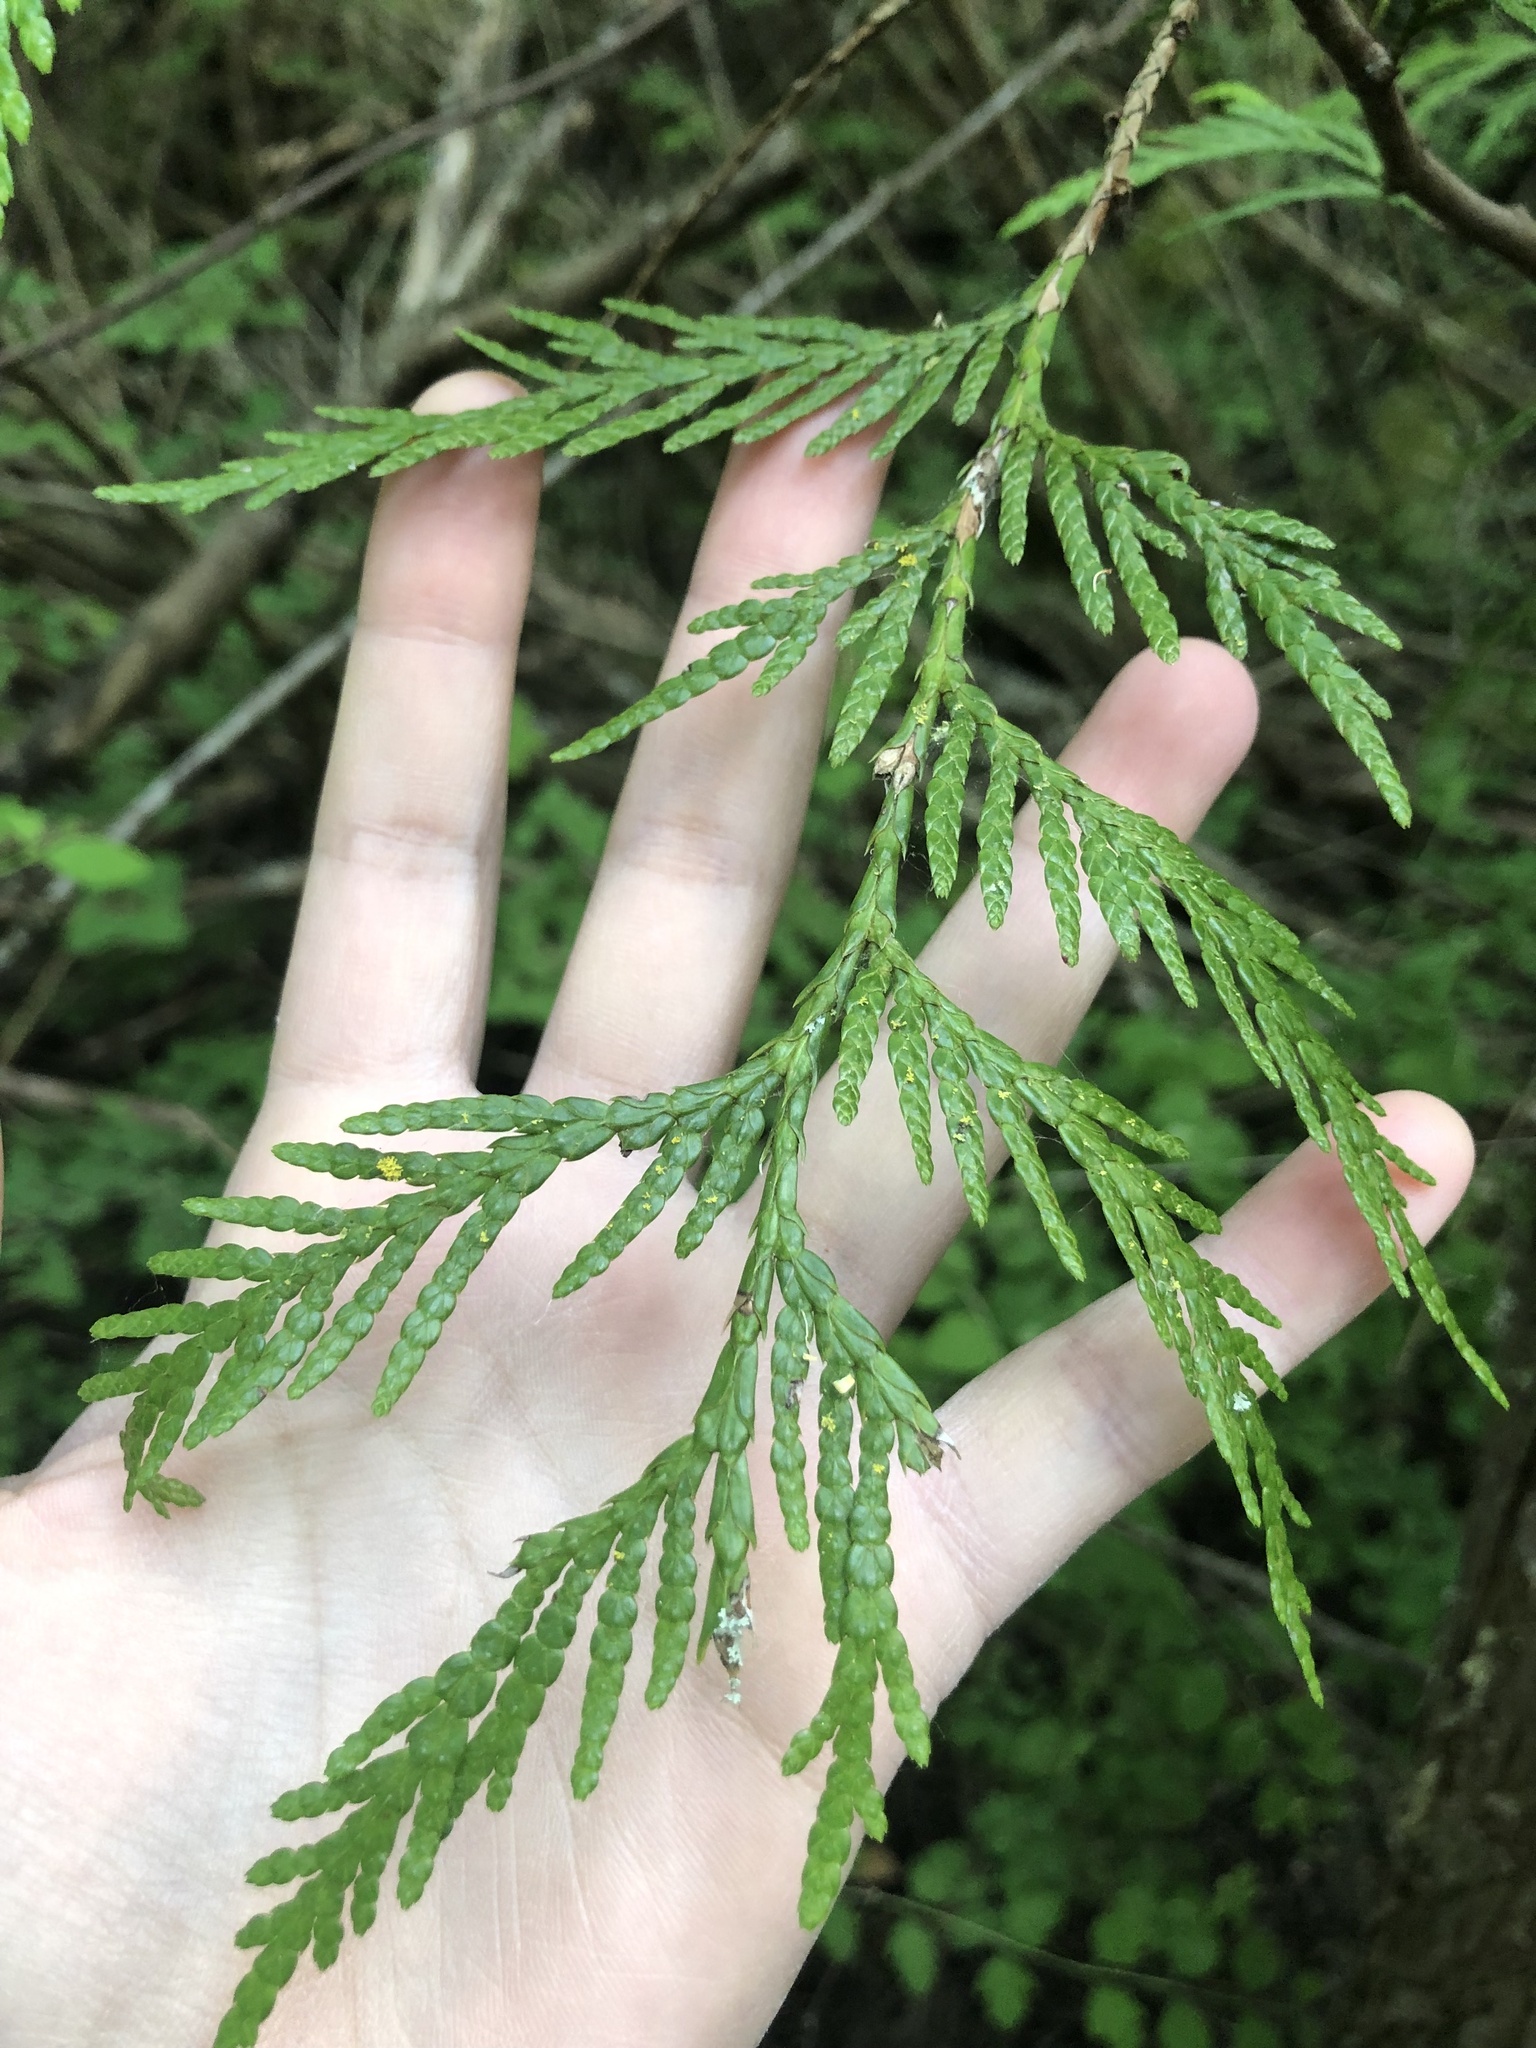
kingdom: Plantae
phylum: Tracheophyta
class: Pinopsida
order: Pinales
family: Cupressaceae
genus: Thuja
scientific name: Thuja plicata
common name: Western red-cedar
